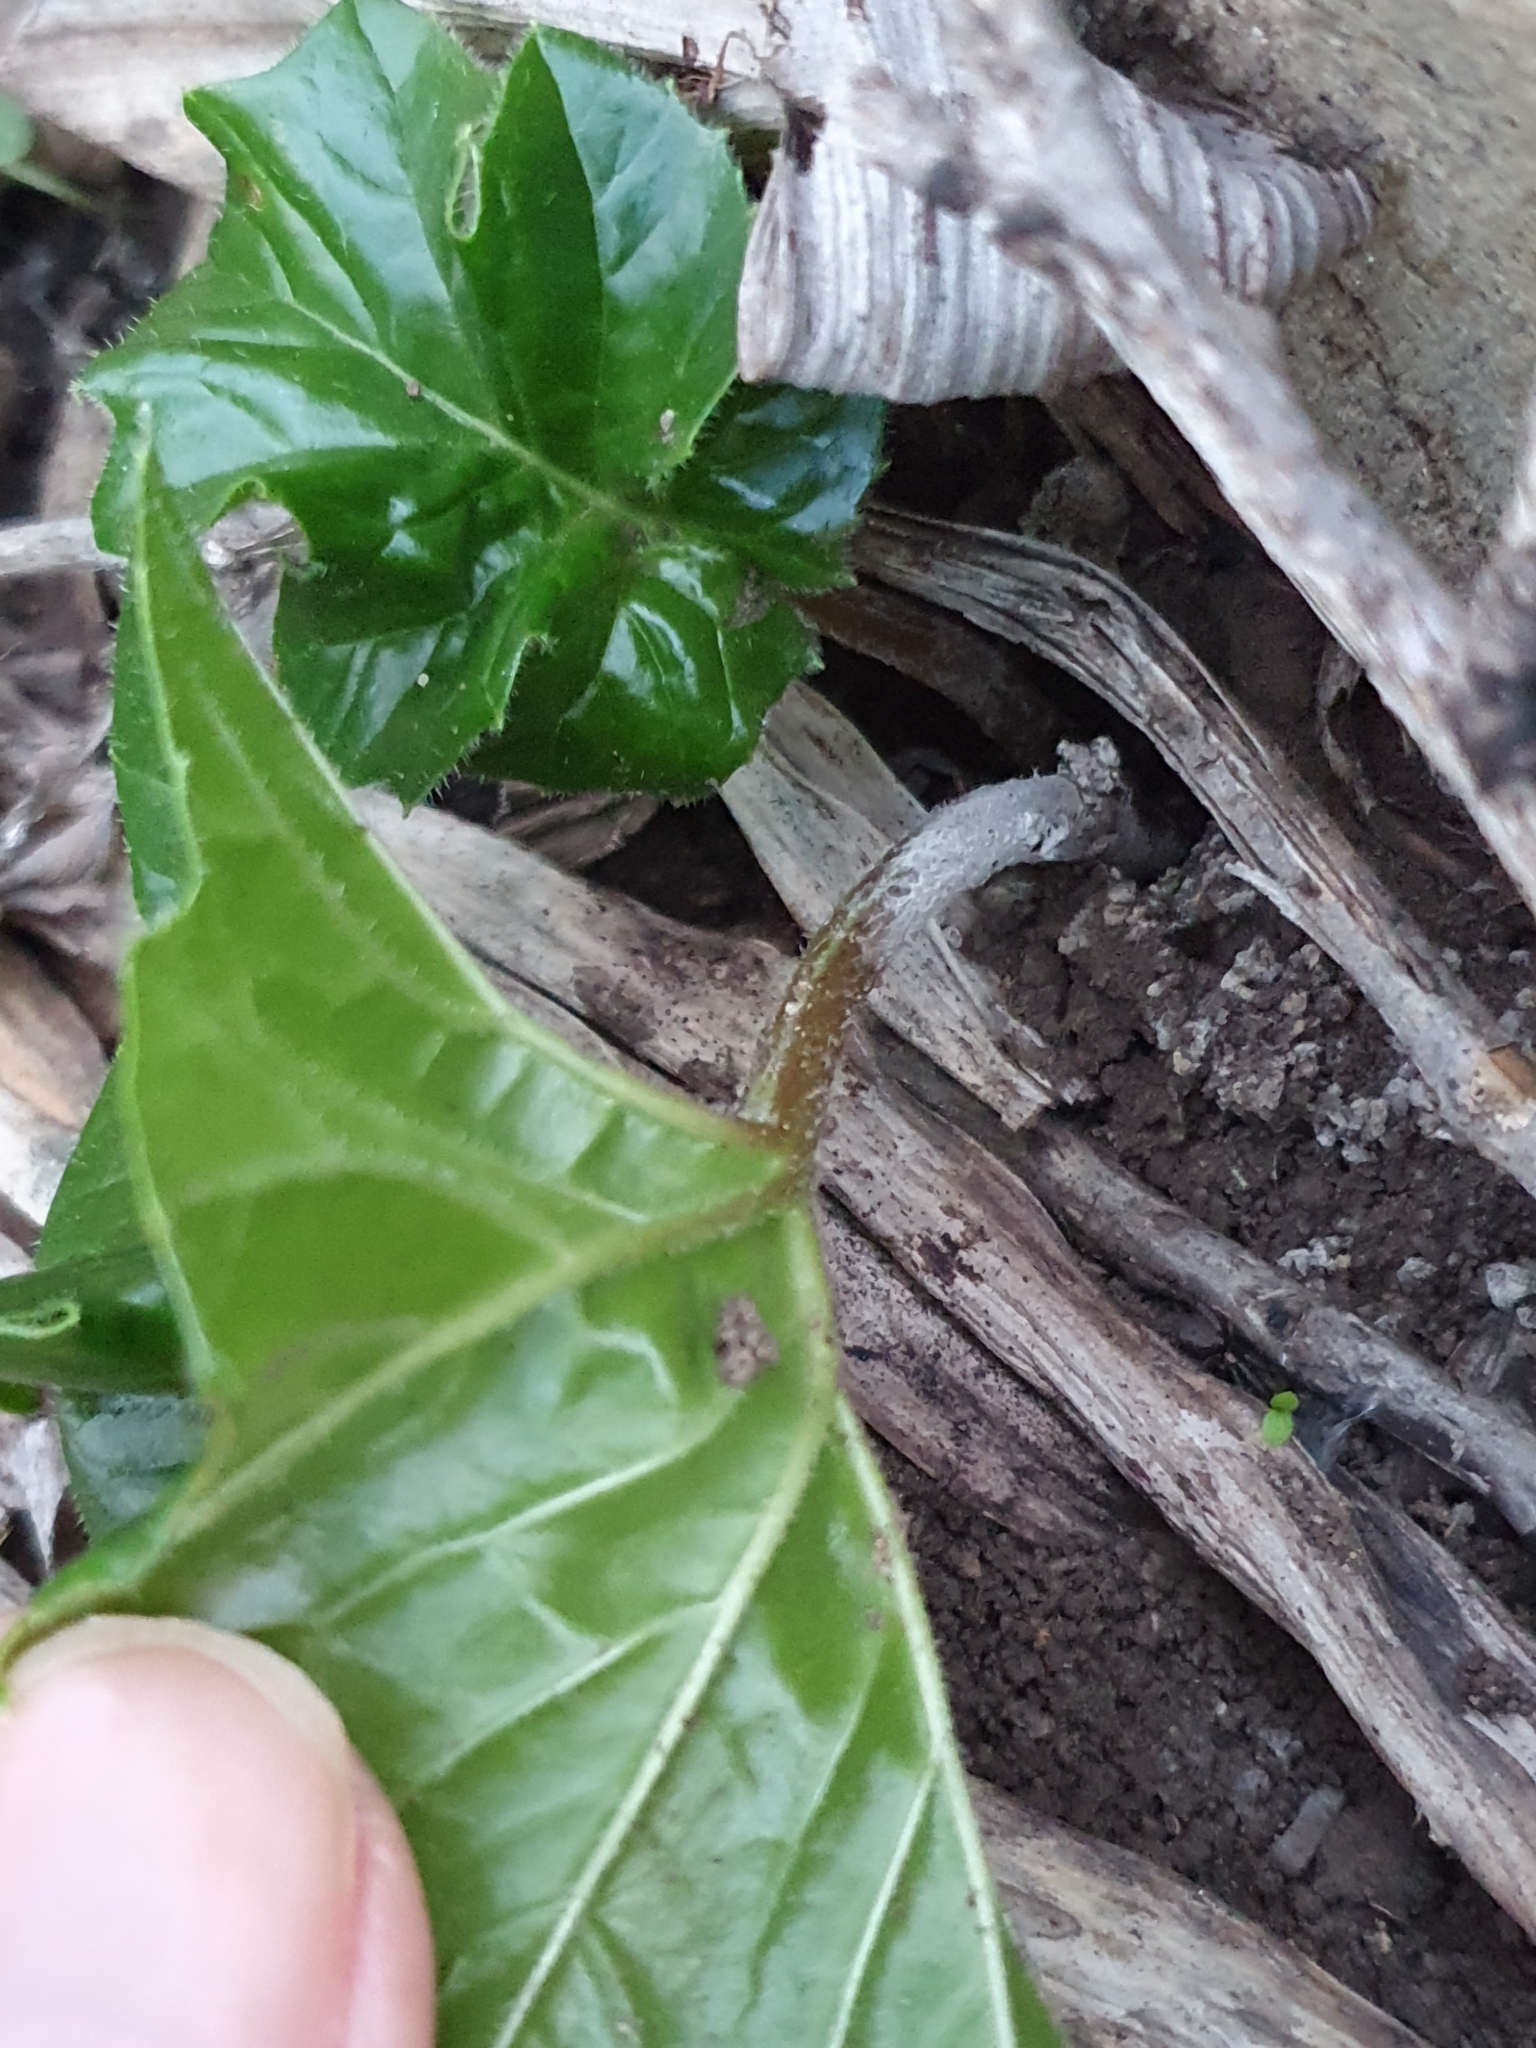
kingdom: Plantae
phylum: Tracheophyta
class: Magnoliopsida
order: Lamiales
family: Acanthaceae
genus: Acanthus
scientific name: Acanthus mollis
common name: Bear's-breech
